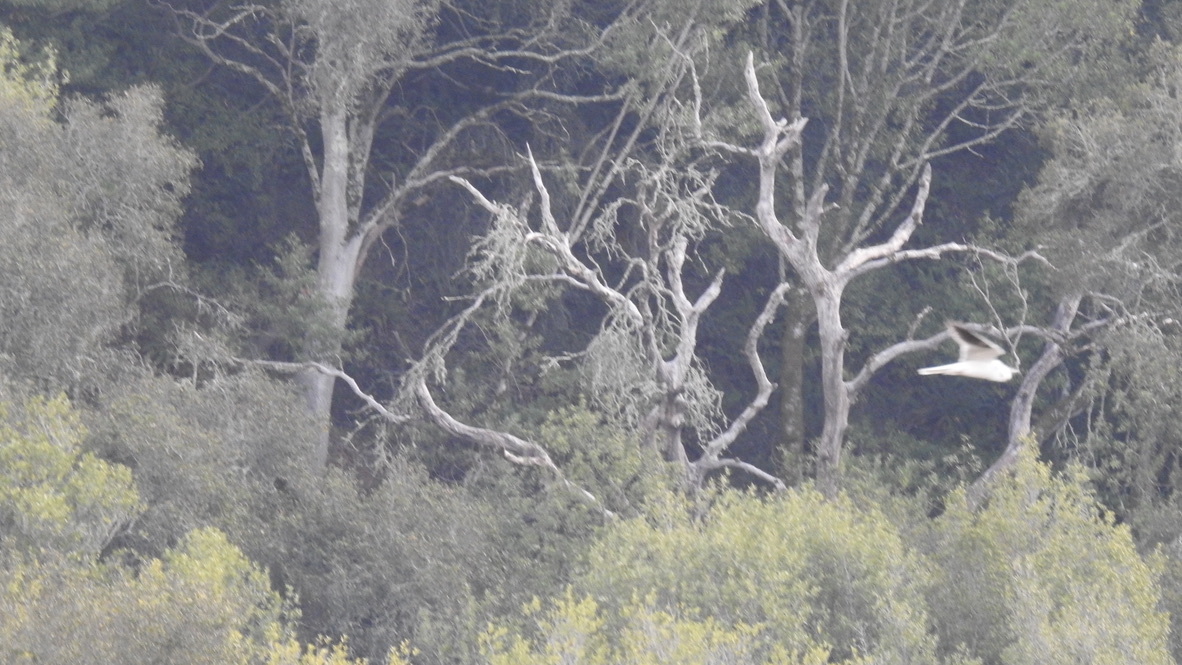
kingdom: Animalia
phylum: Chordata
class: Aves
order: Accipitriformes
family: Accipitridae
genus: Elanus
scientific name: Elanus leucurus
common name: White-tailed kite
